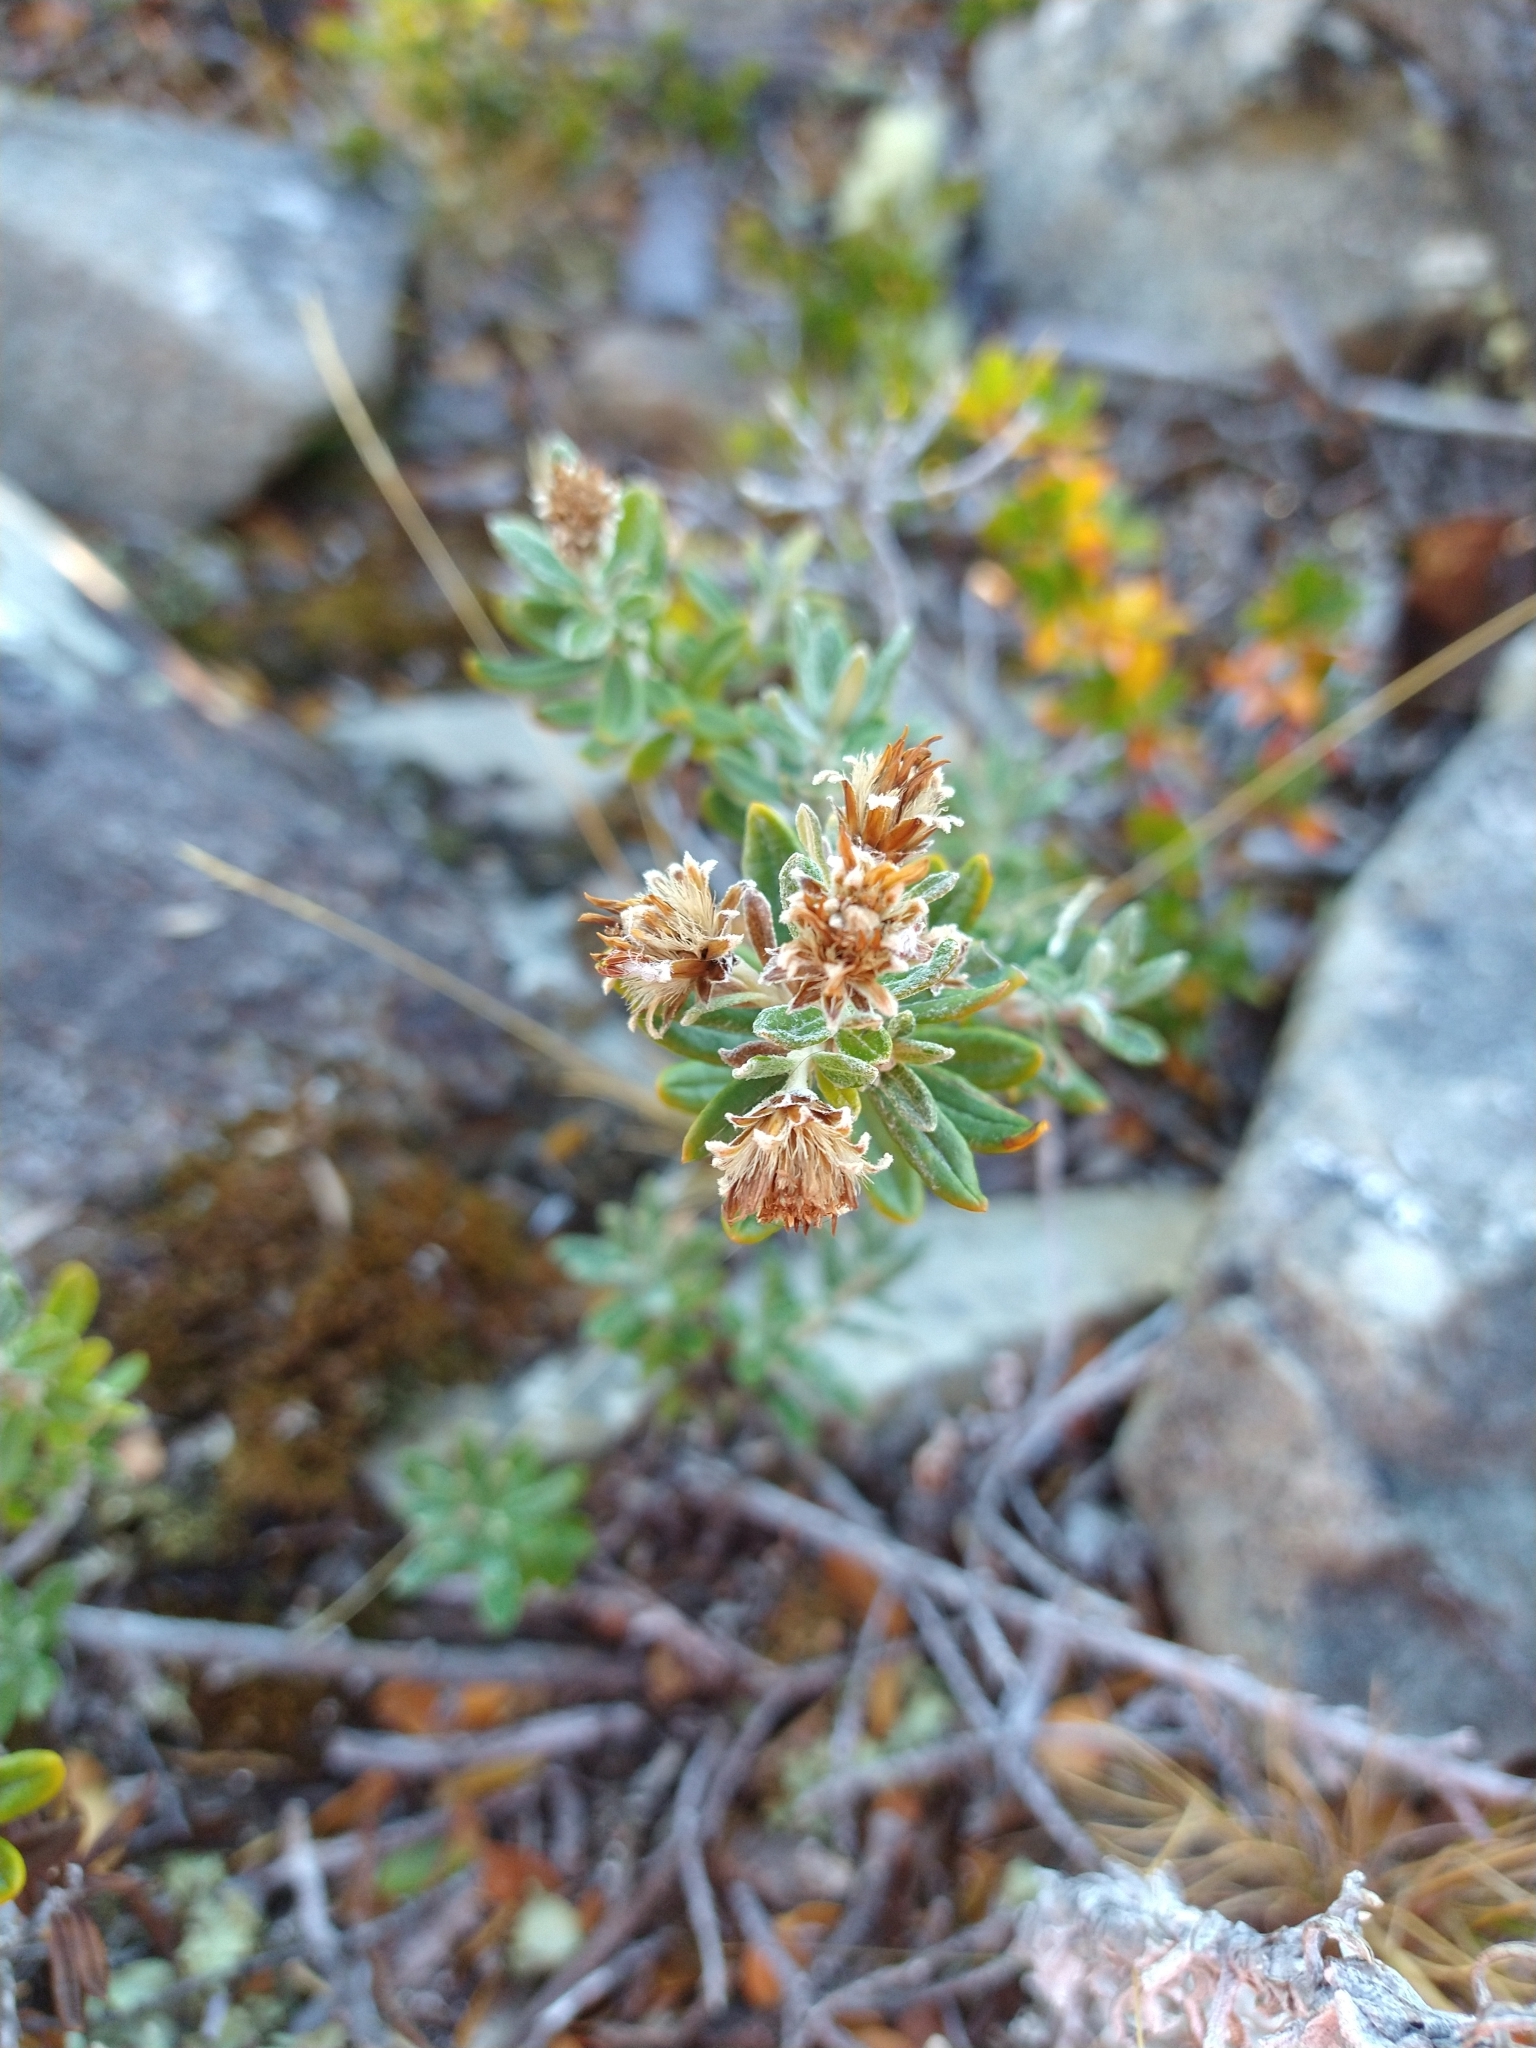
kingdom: Plantae
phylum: Tracheophyta
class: Magnoliopsida
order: Asterales
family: Asteraceae
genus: Chiliotrichum
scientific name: Chiliotrichum diffusum
